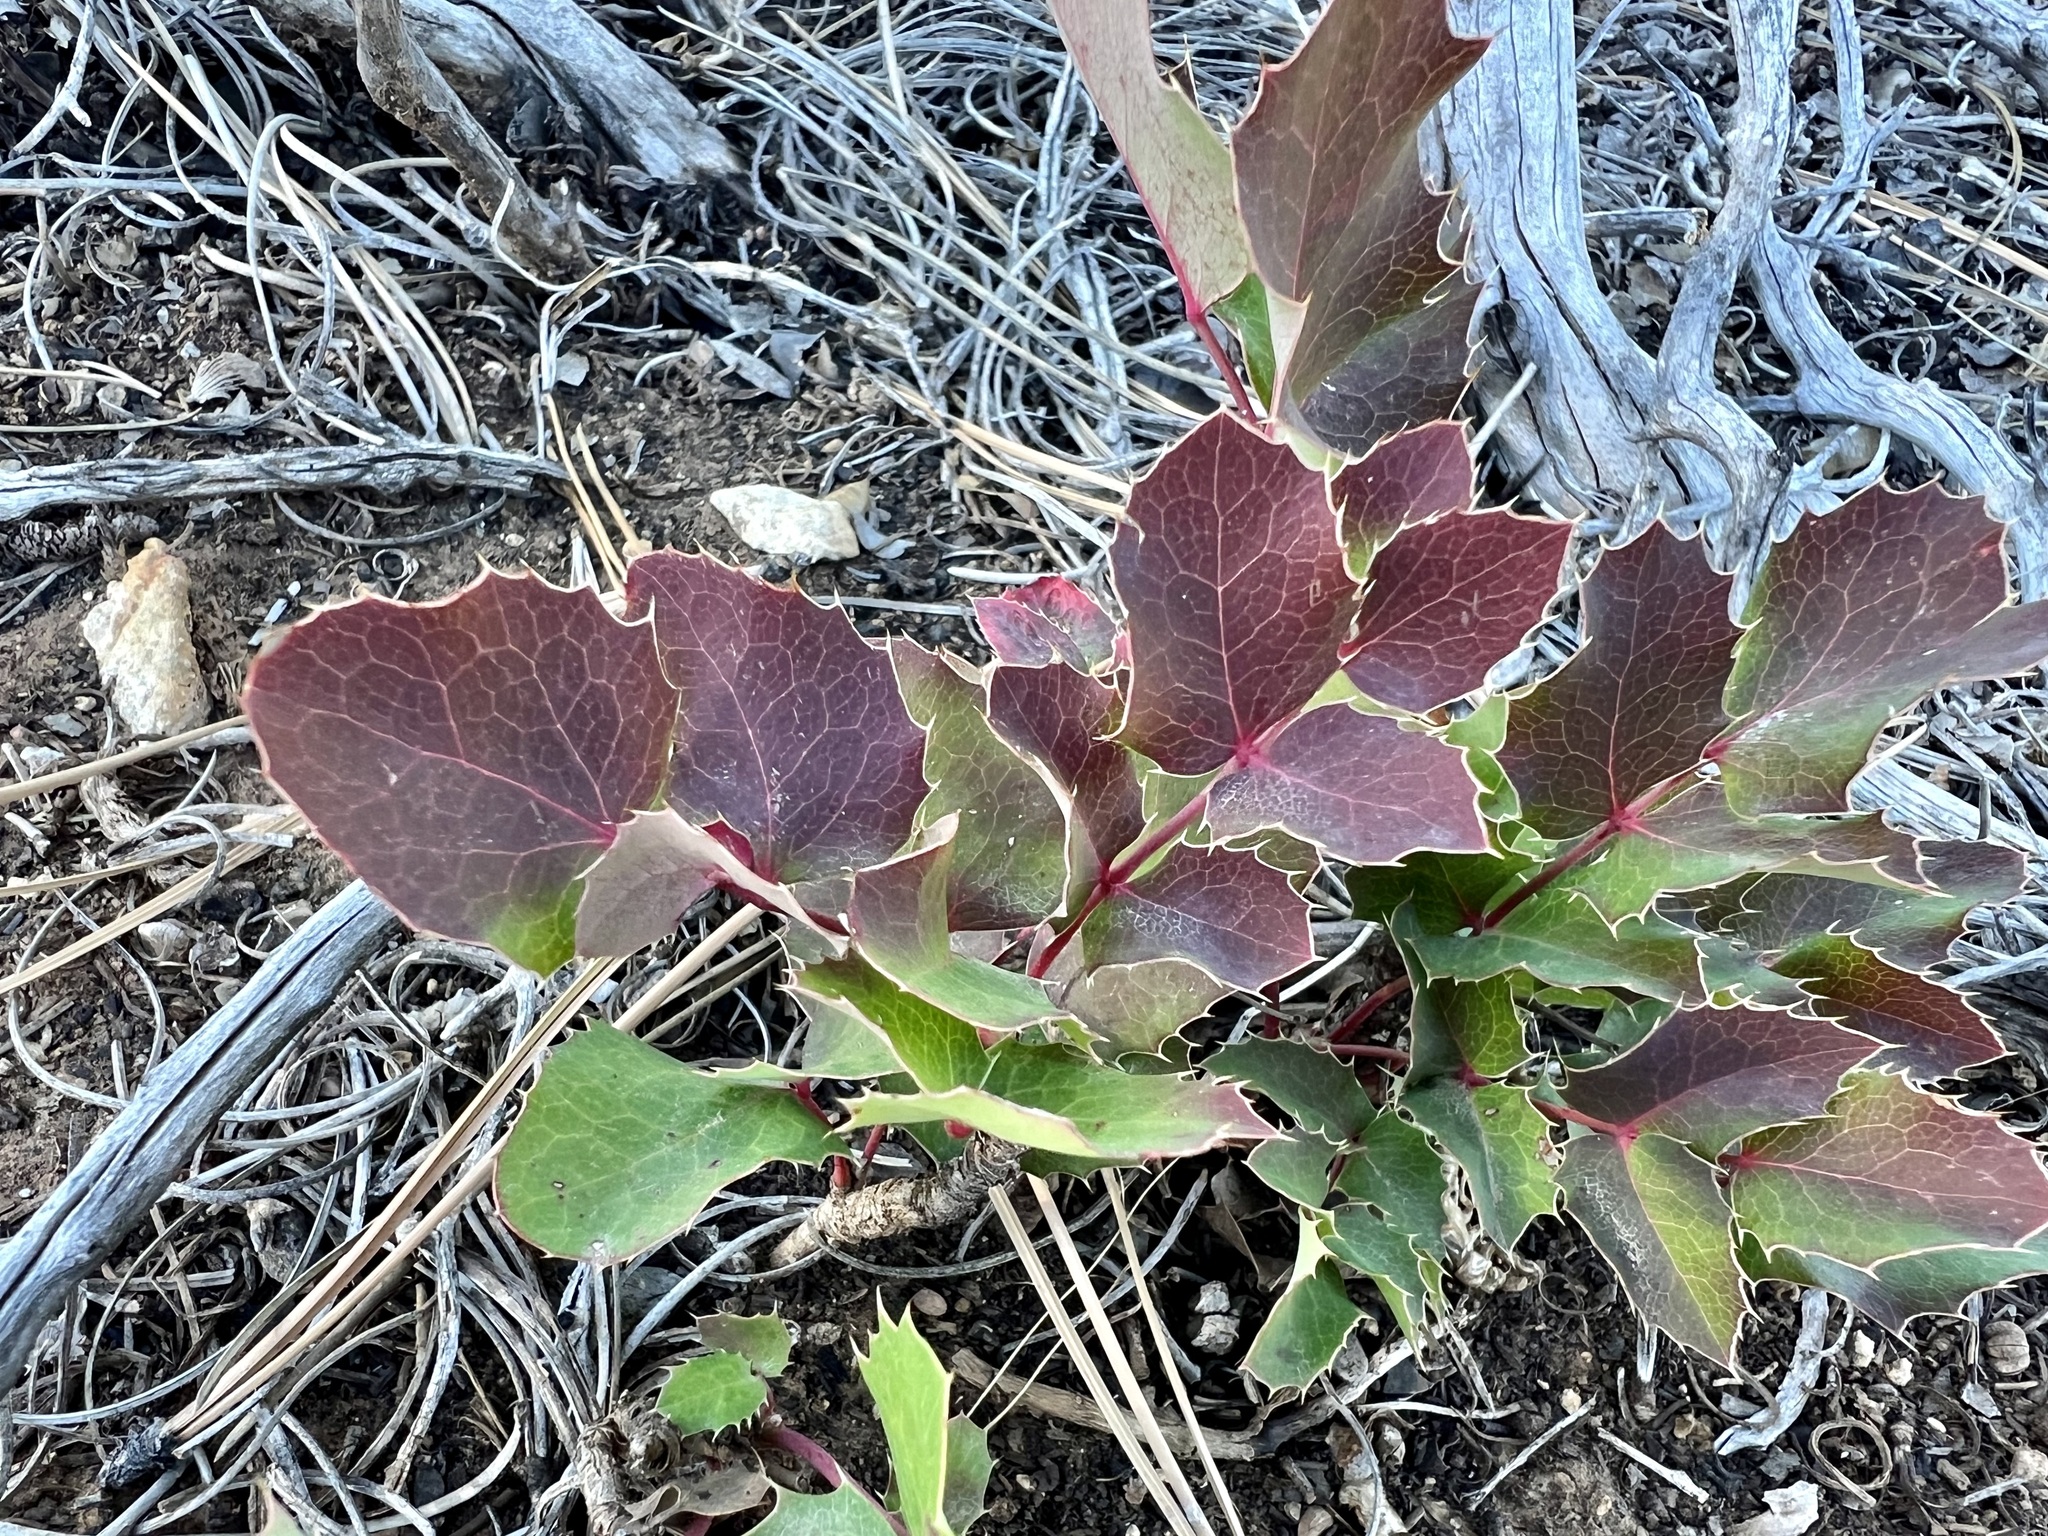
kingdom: Plantae
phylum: Tracheophyta
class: Magnoliopsida
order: Ranunculales
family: Berberidaceae
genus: Mahonia
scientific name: Mahonia repens
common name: Creeping oregon-grape
